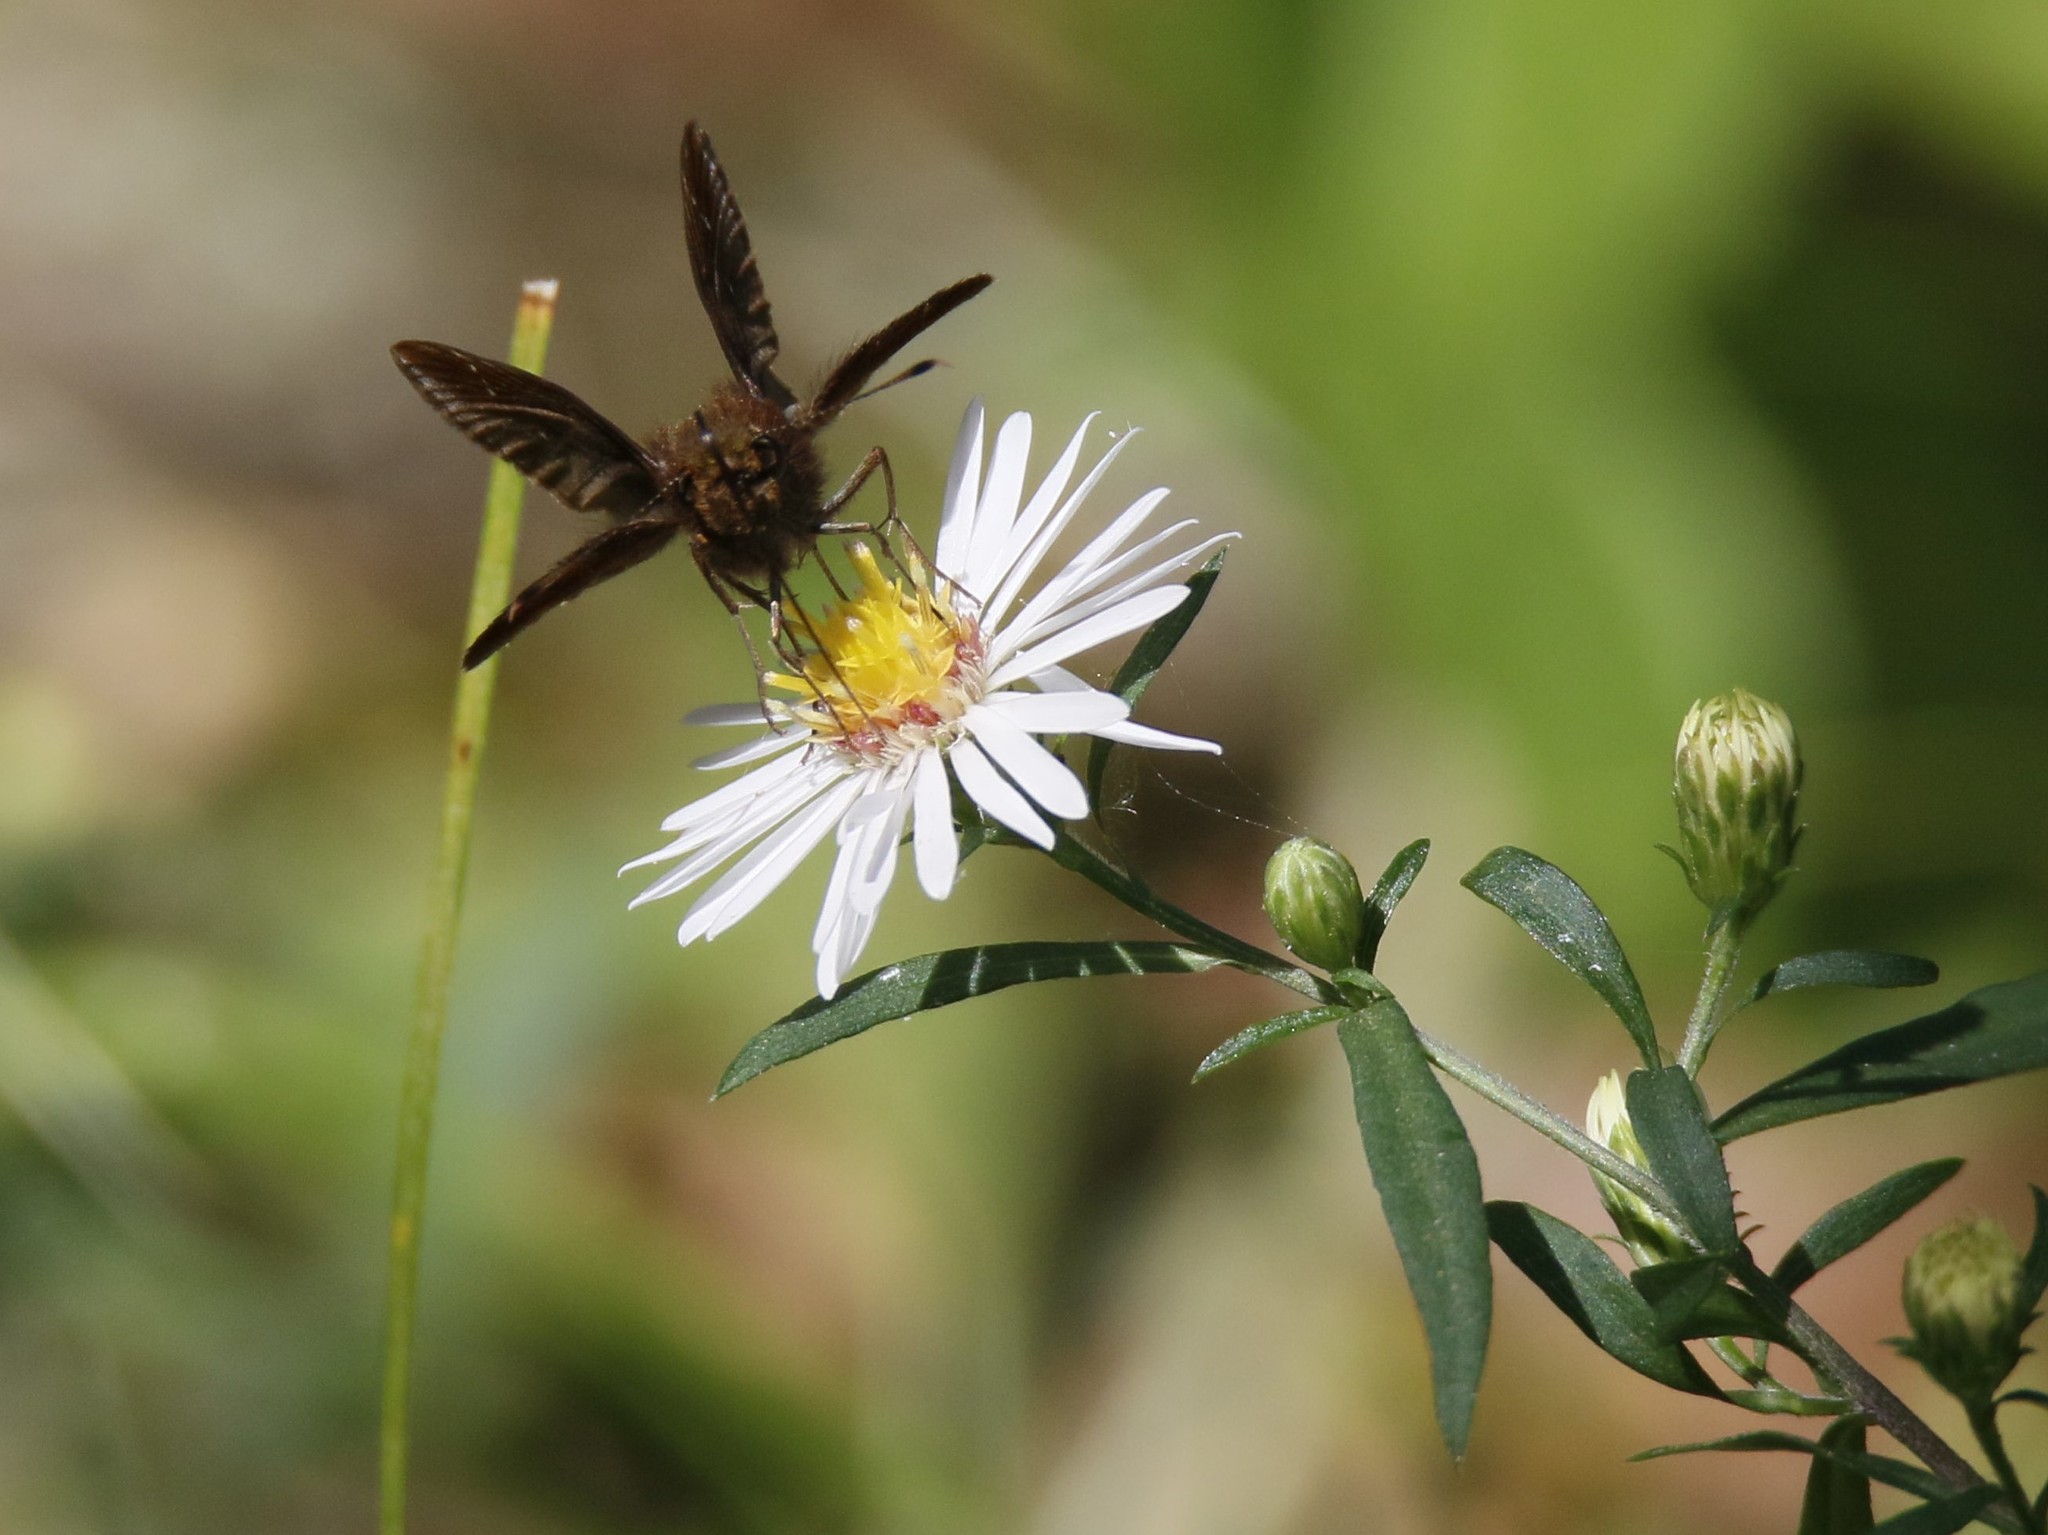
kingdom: Animalia
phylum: Arthropoda
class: Insecta
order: Lepidoptera
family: Hesperiidae
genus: Lerema
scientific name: Lerema accius
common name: Clouded skipper
